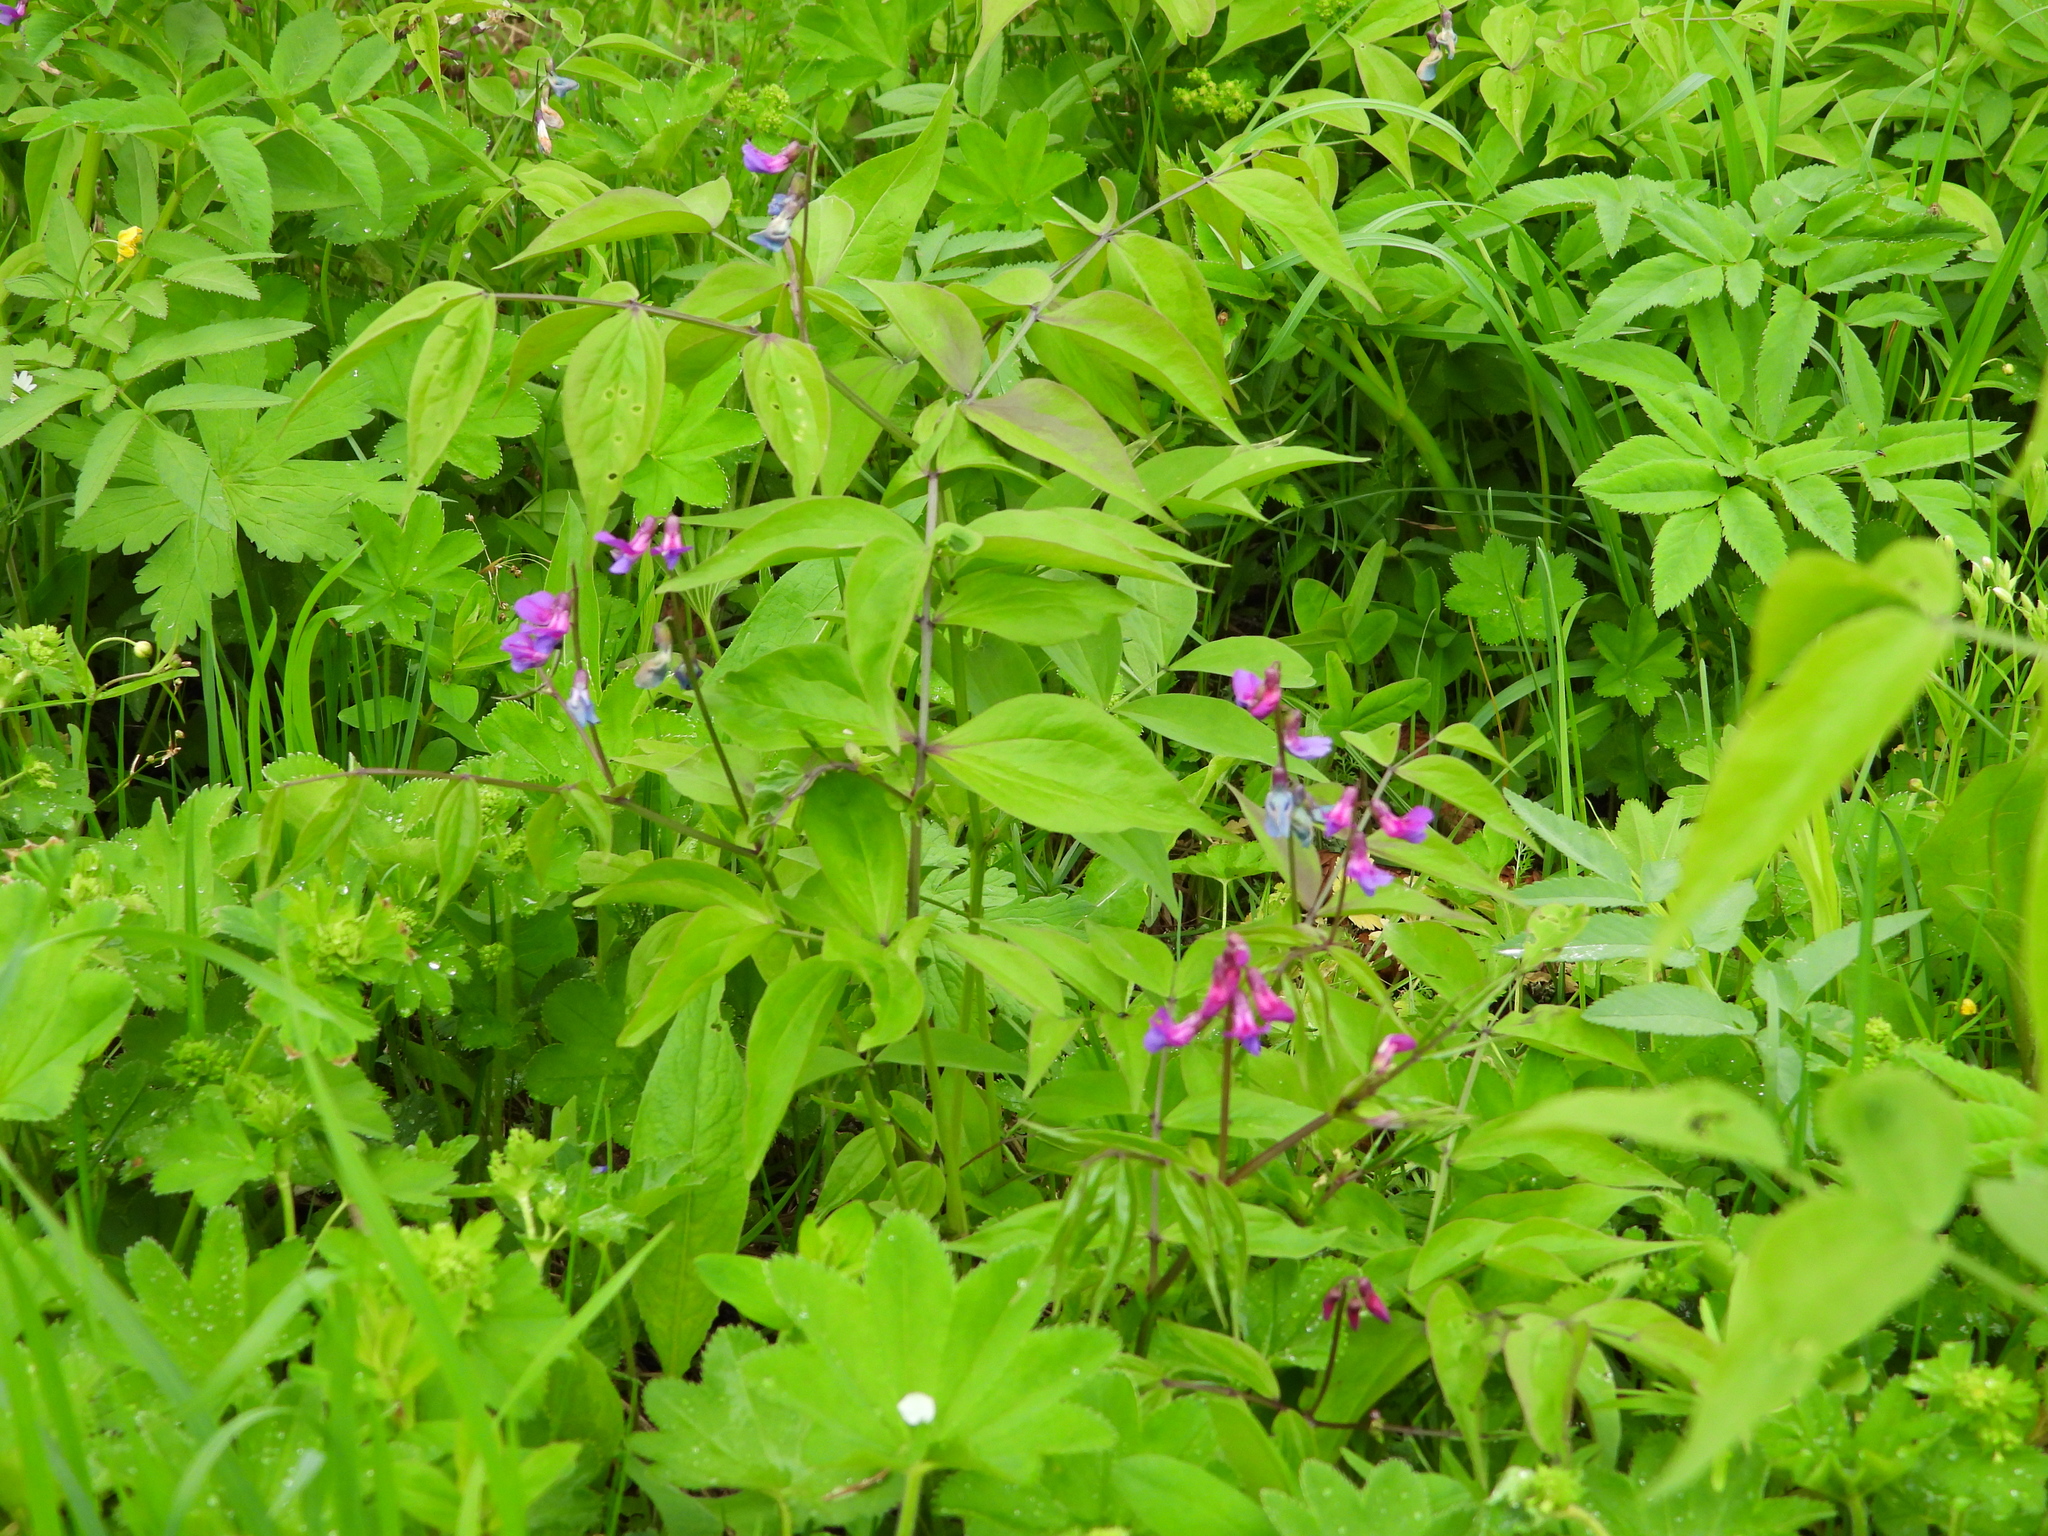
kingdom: Plantae
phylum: Tracheophyta
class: Magnoliopsida
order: Fabales
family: Fabaceae
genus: Lathyrus
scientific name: Lathyrus vernus
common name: Spring pea
